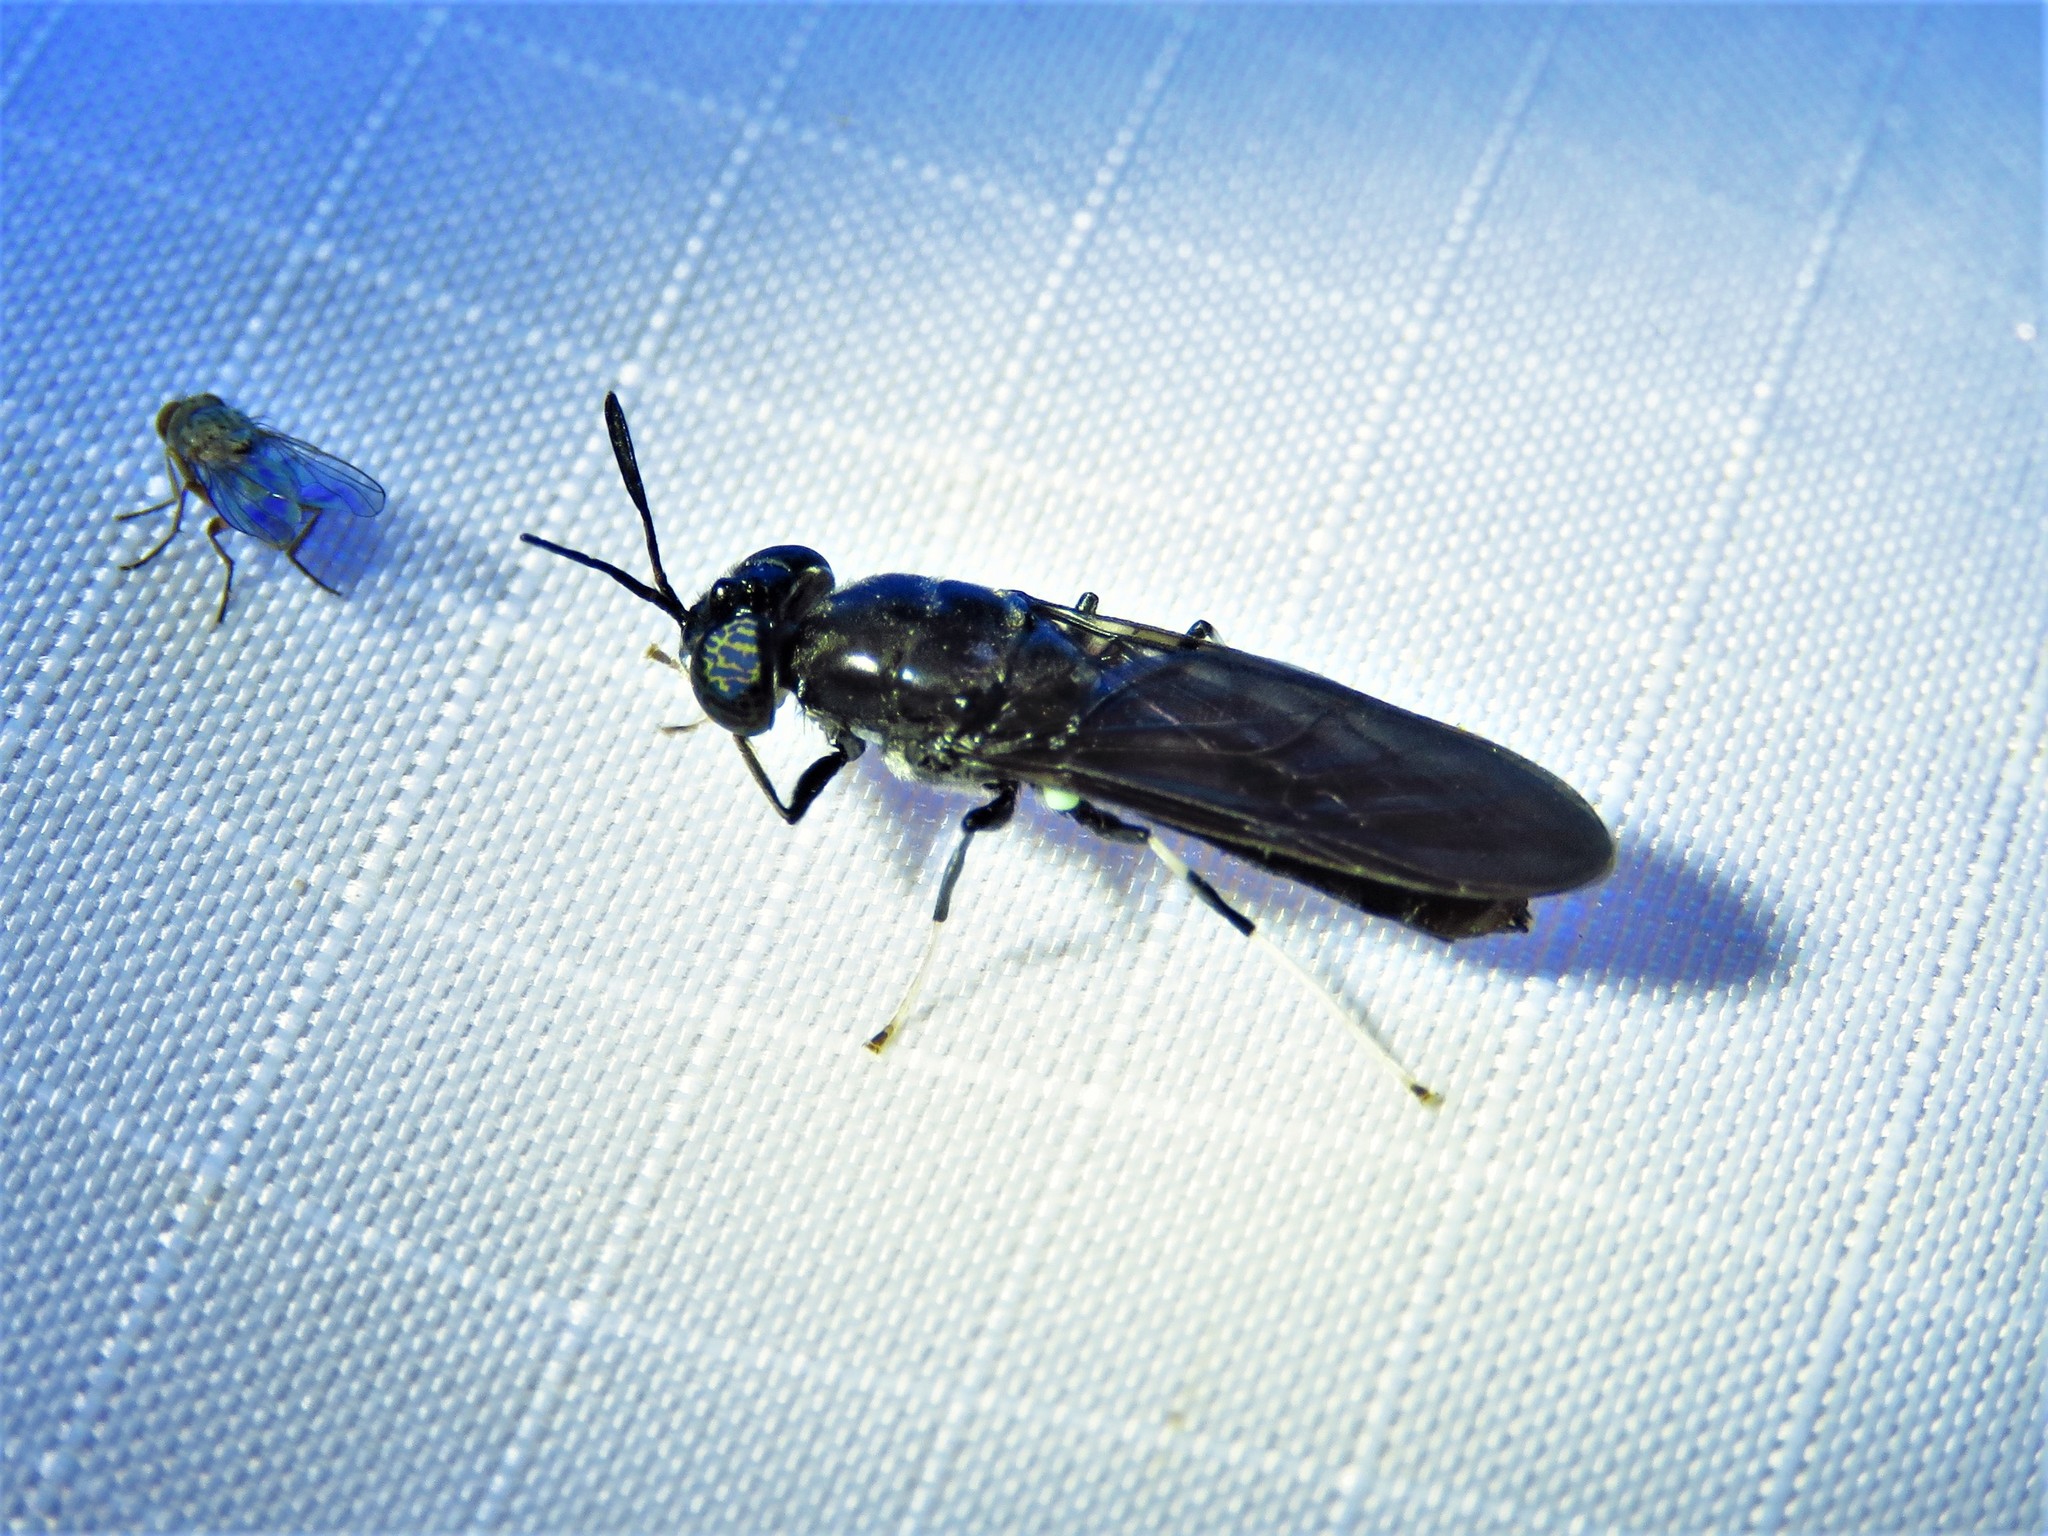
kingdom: Animalia
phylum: Arthropoda
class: Insecta
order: Diptera
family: Stratiomyidae
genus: Hermetia
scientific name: Hermetia illucens
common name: Black soldier fly
